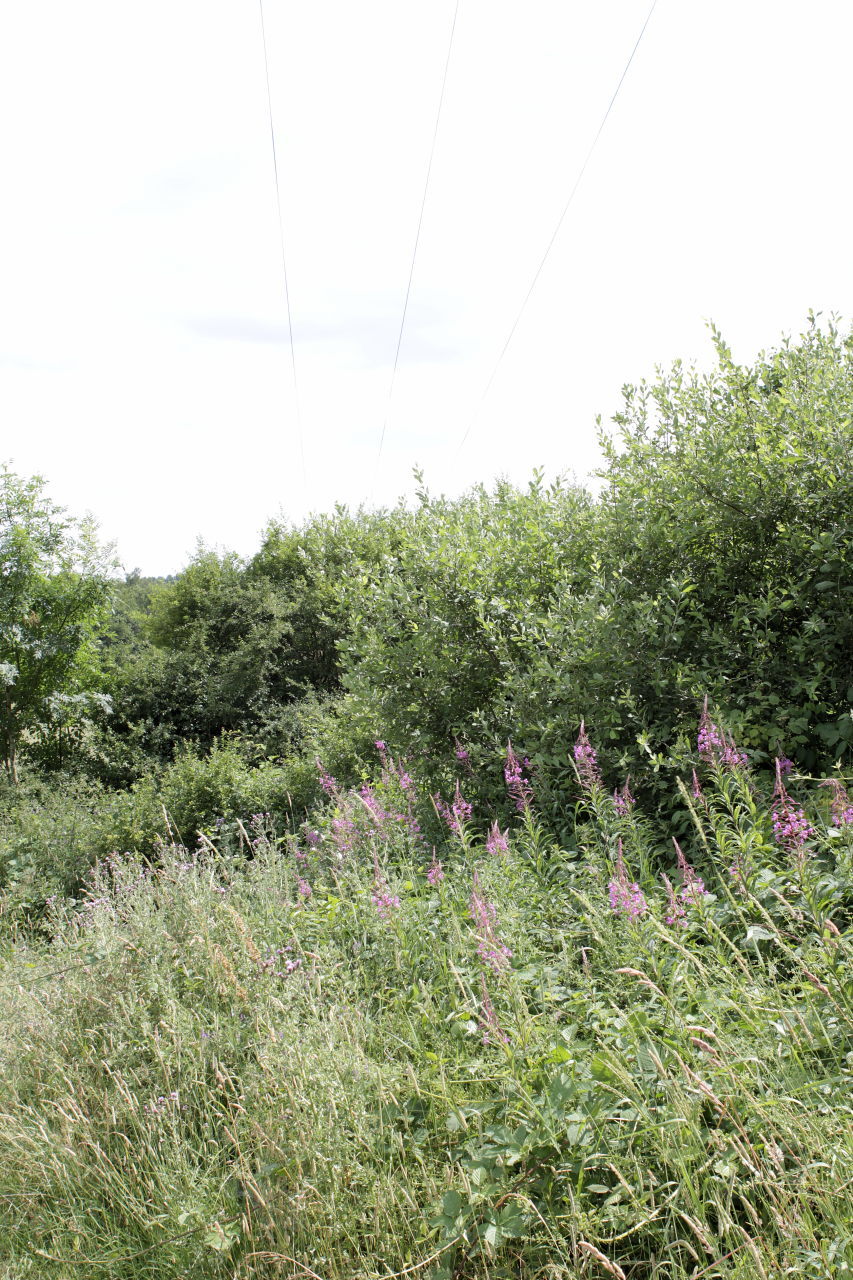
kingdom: Plantae
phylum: Tracheophyta
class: Magnoliopsida
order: Myrtales
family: Onagraceae
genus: Chamaenerion
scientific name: Chamaenerion angustifolium
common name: Fireweed
